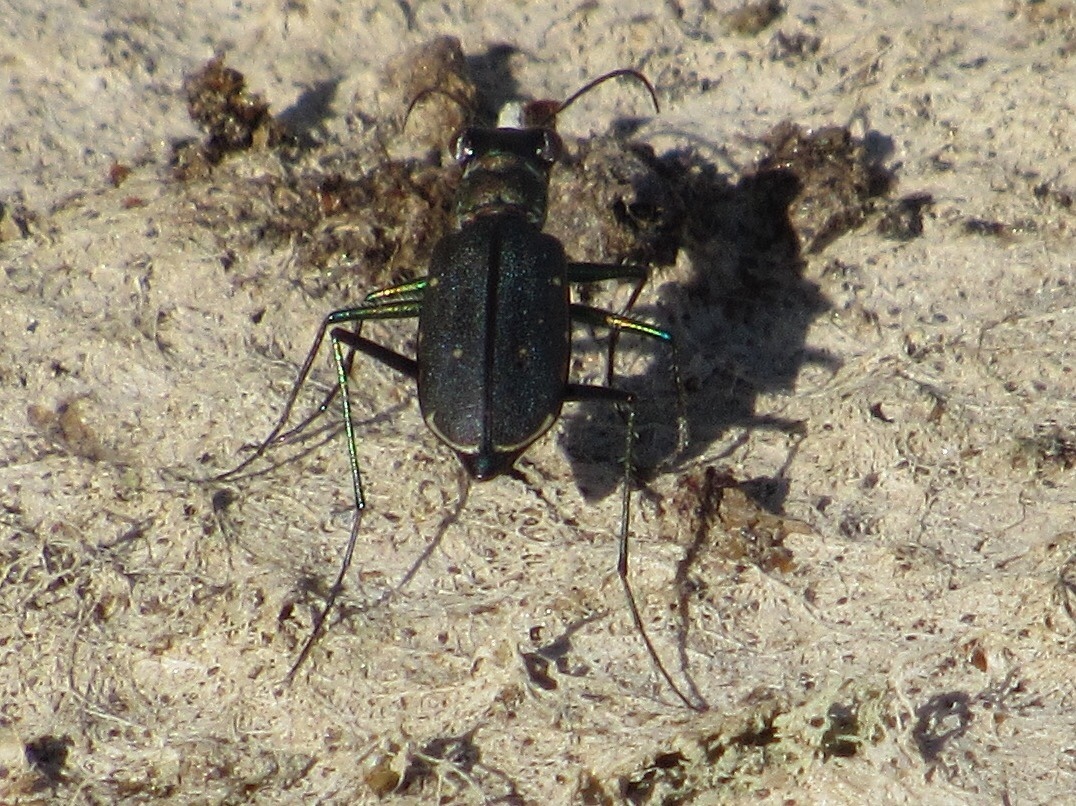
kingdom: Animalia
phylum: Arthropoda
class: Insecta
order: Coleoptera
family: Carabidae
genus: Cicindela
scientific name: Cicindela punctulata
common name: Punctured tiger beetle
